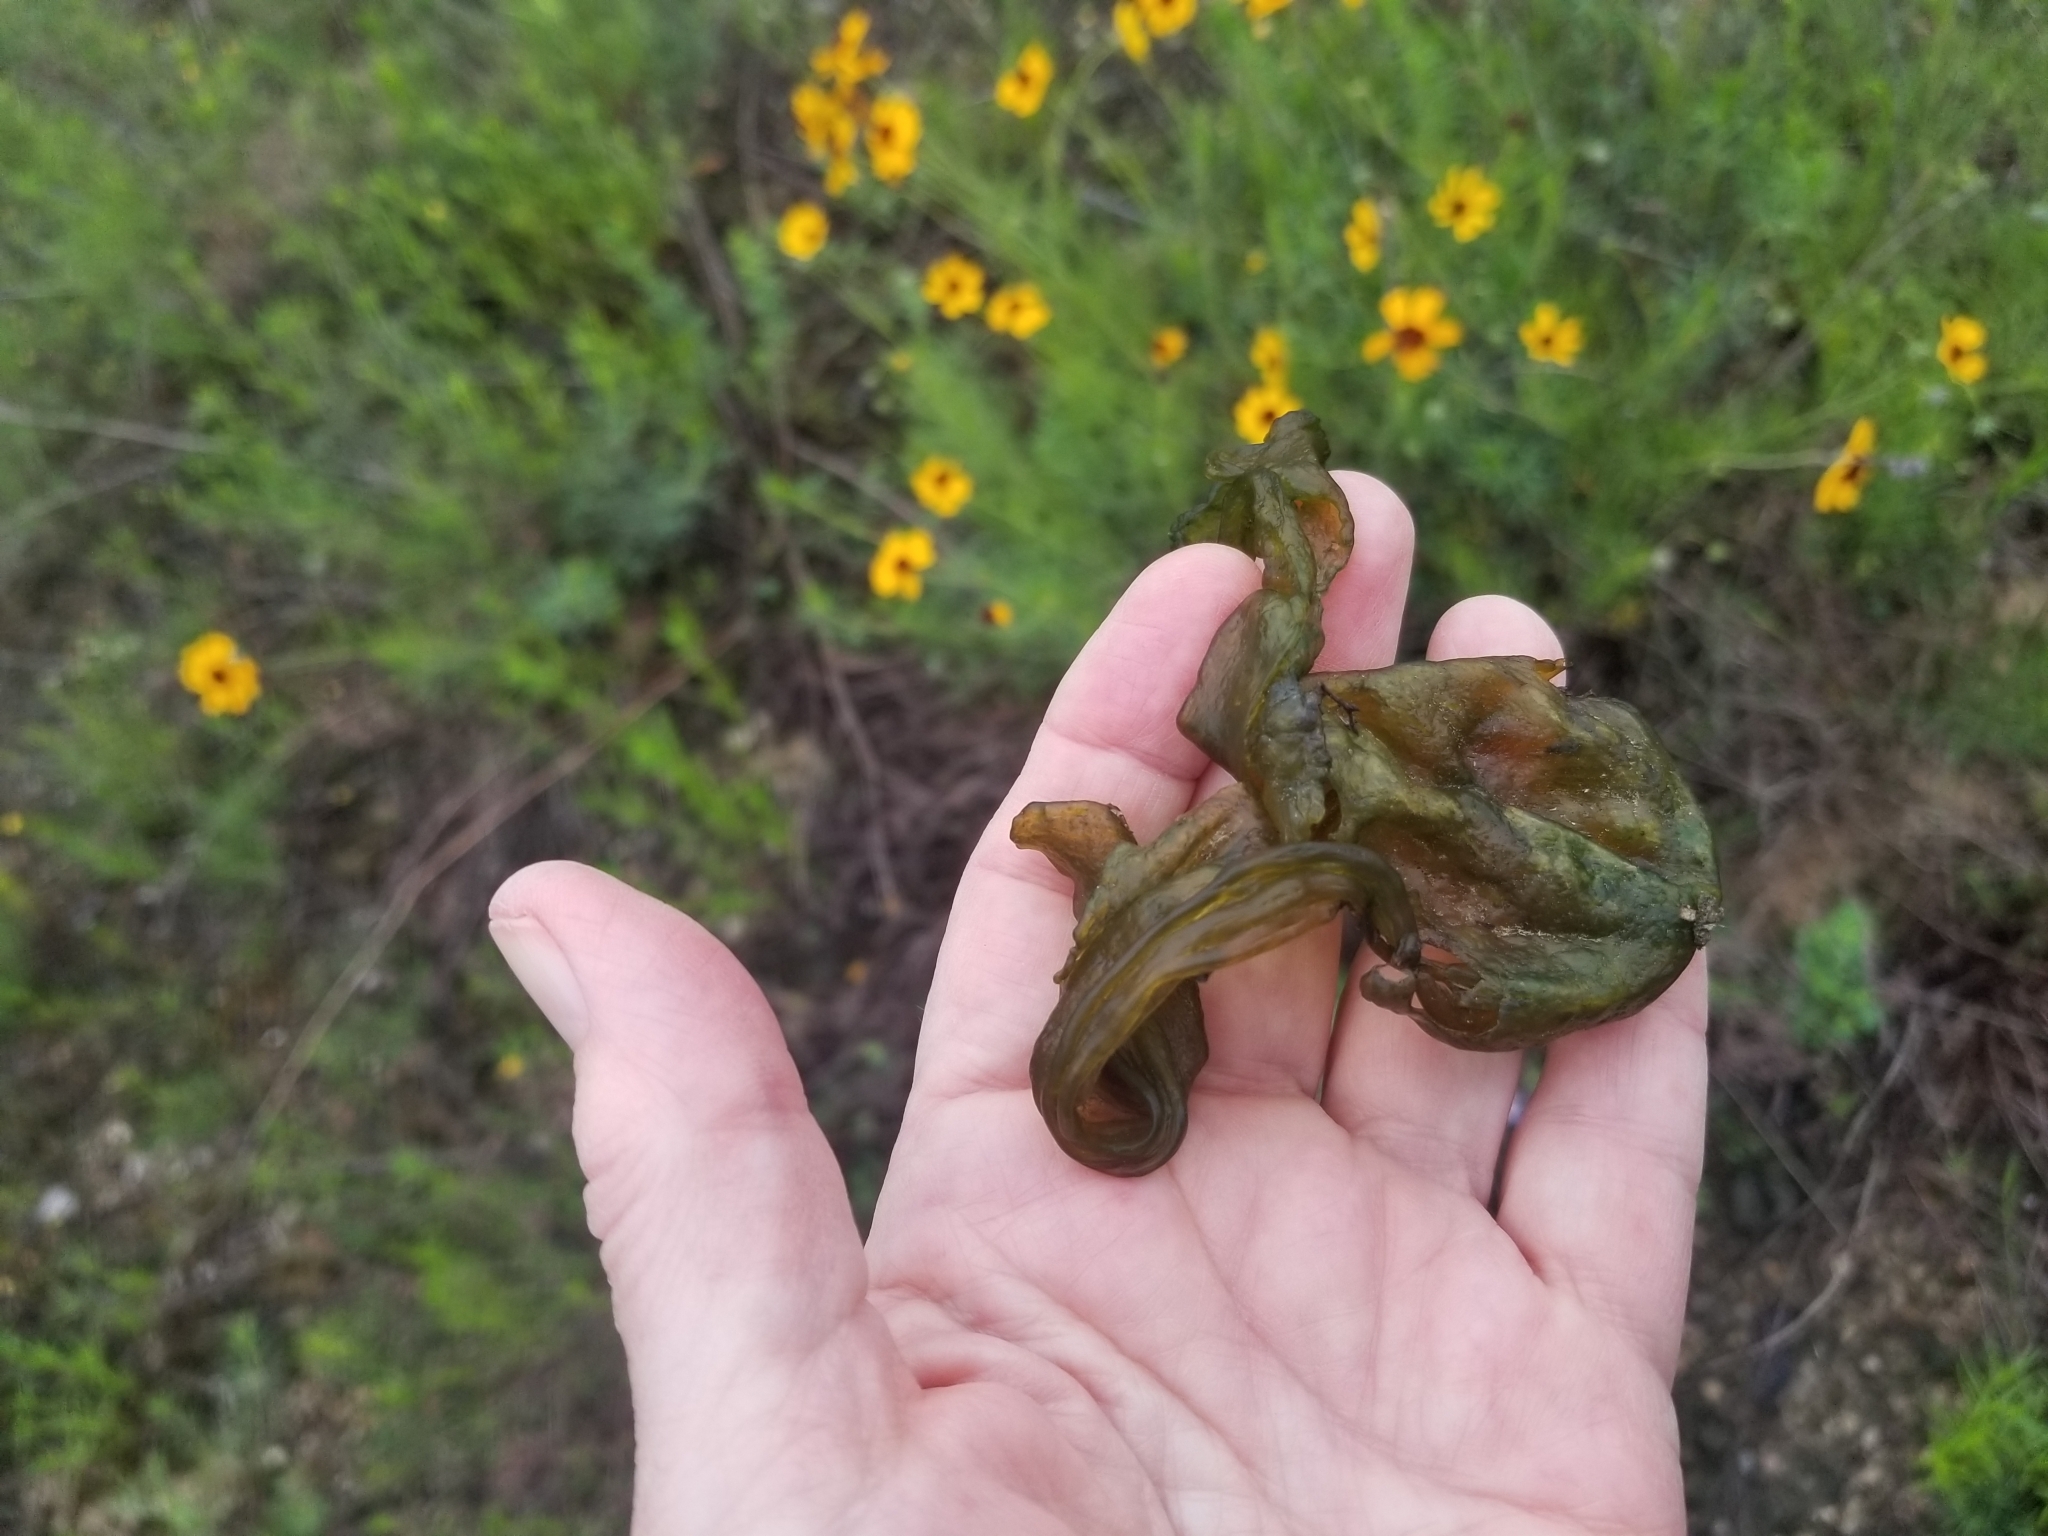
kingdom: Bacteria
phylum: Cyanobacteria
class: Cyanobacteriia
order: Cyanobacteriales
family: Nostocaceae
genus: Nostoc
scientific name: Nostoc commune
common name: Star jelly
